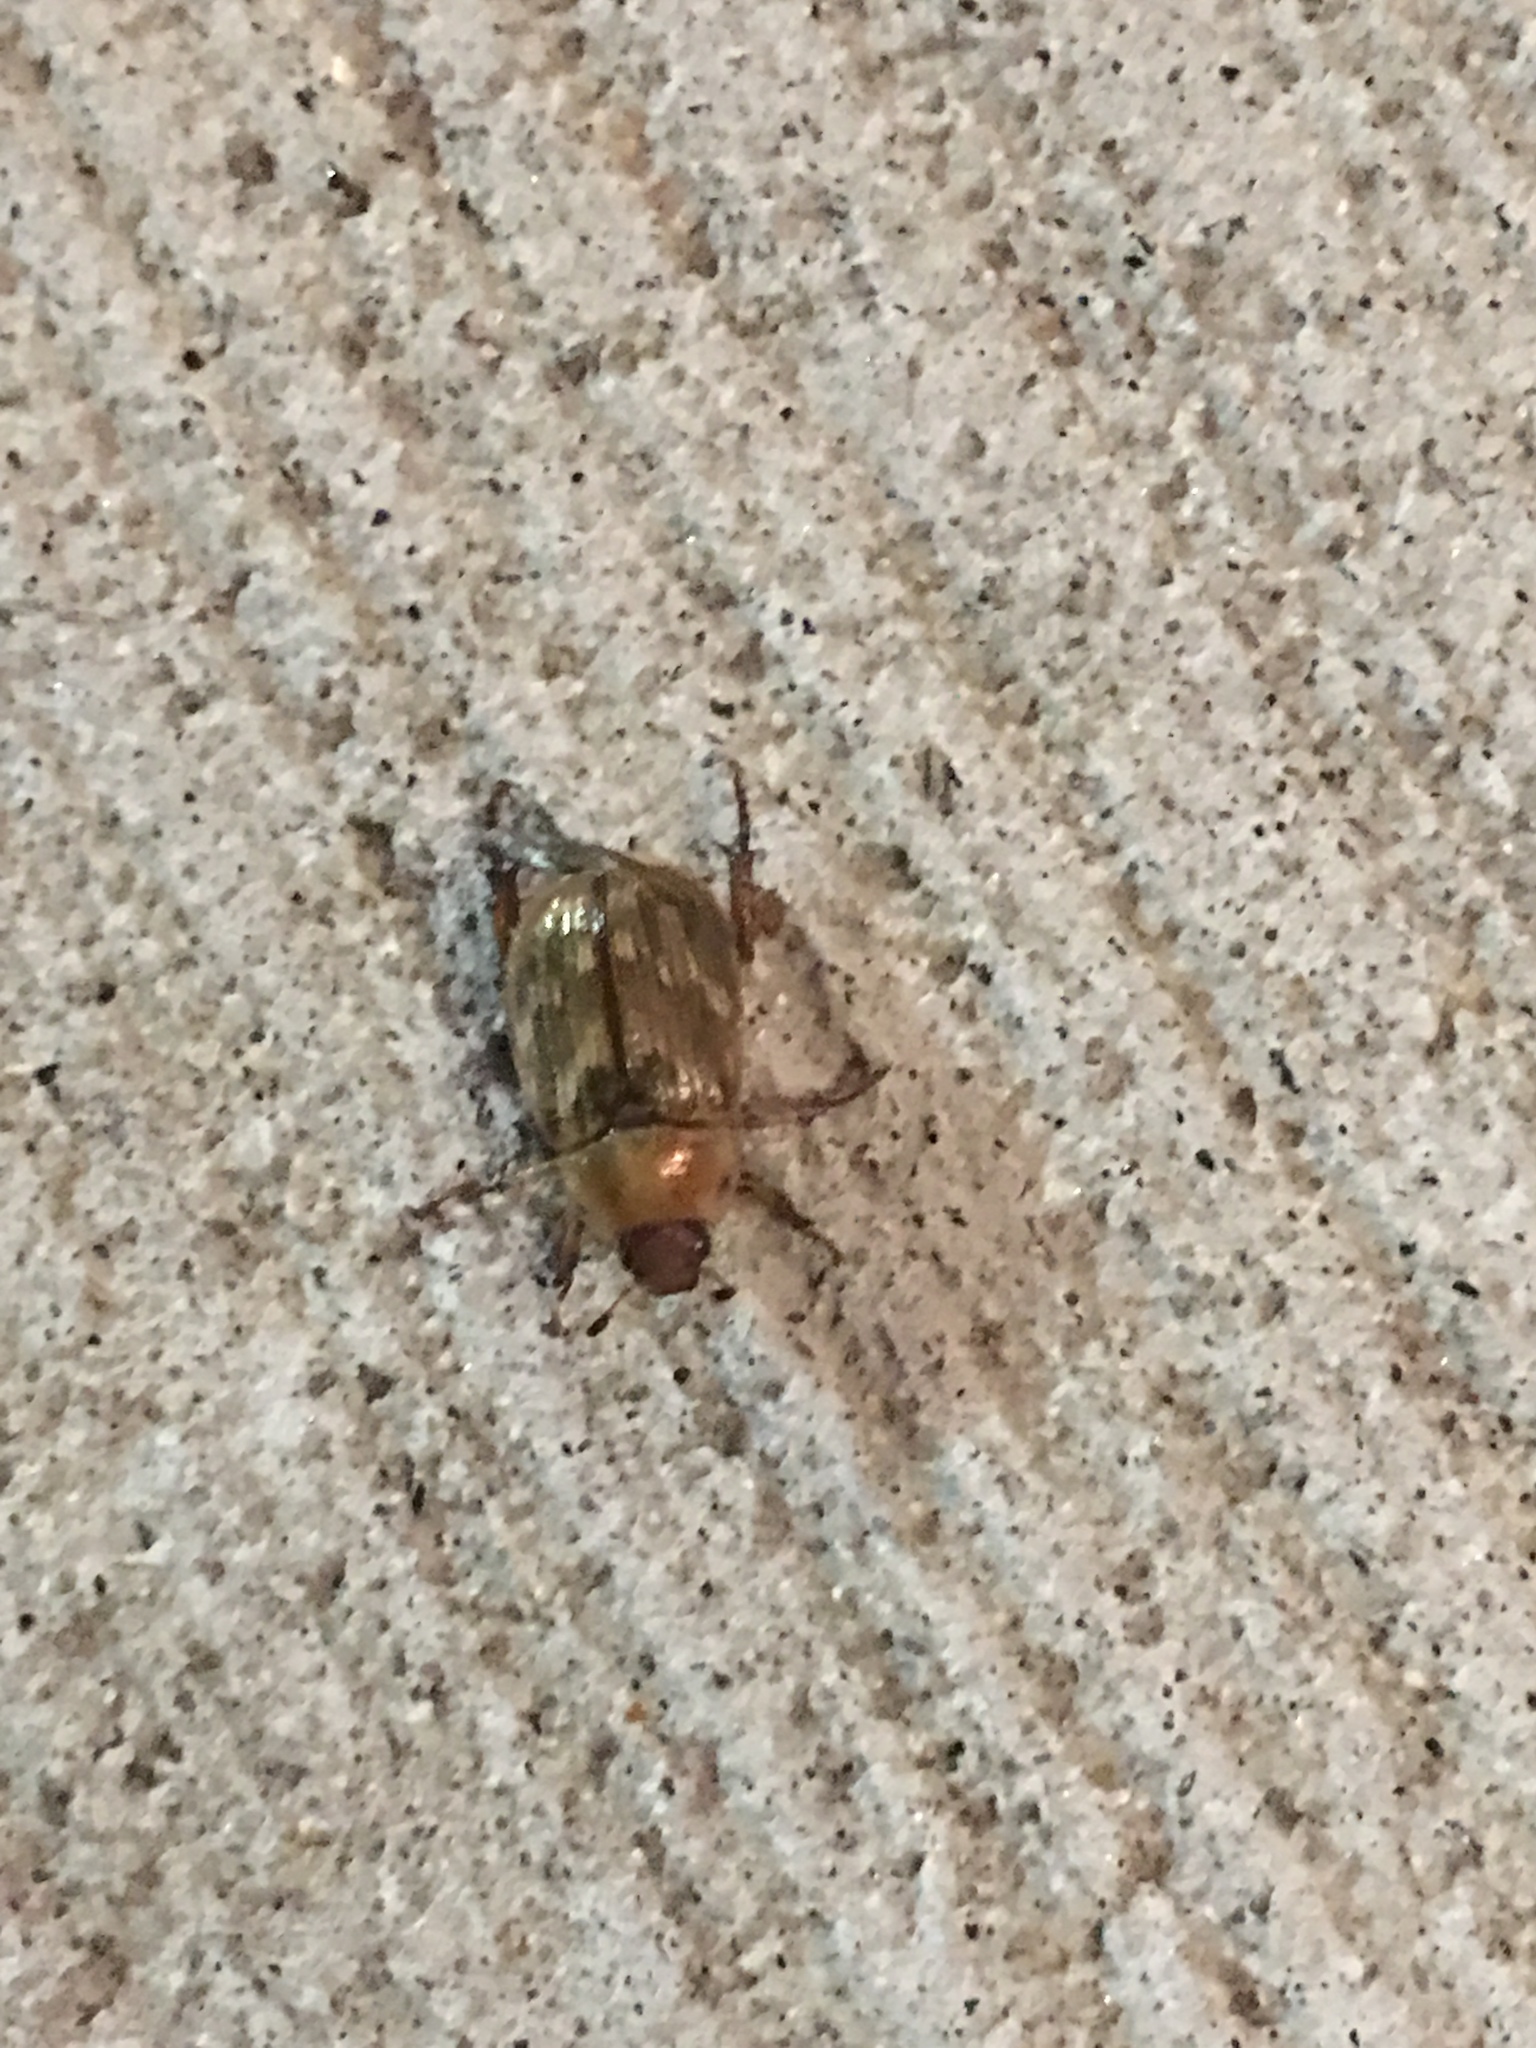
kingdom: Animalia
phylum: Arthropoda
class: Insecta
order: Coleoptera
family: Scarabaeidae
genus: Exomala
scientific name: Exomala orientalis
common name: Oriental beetle
